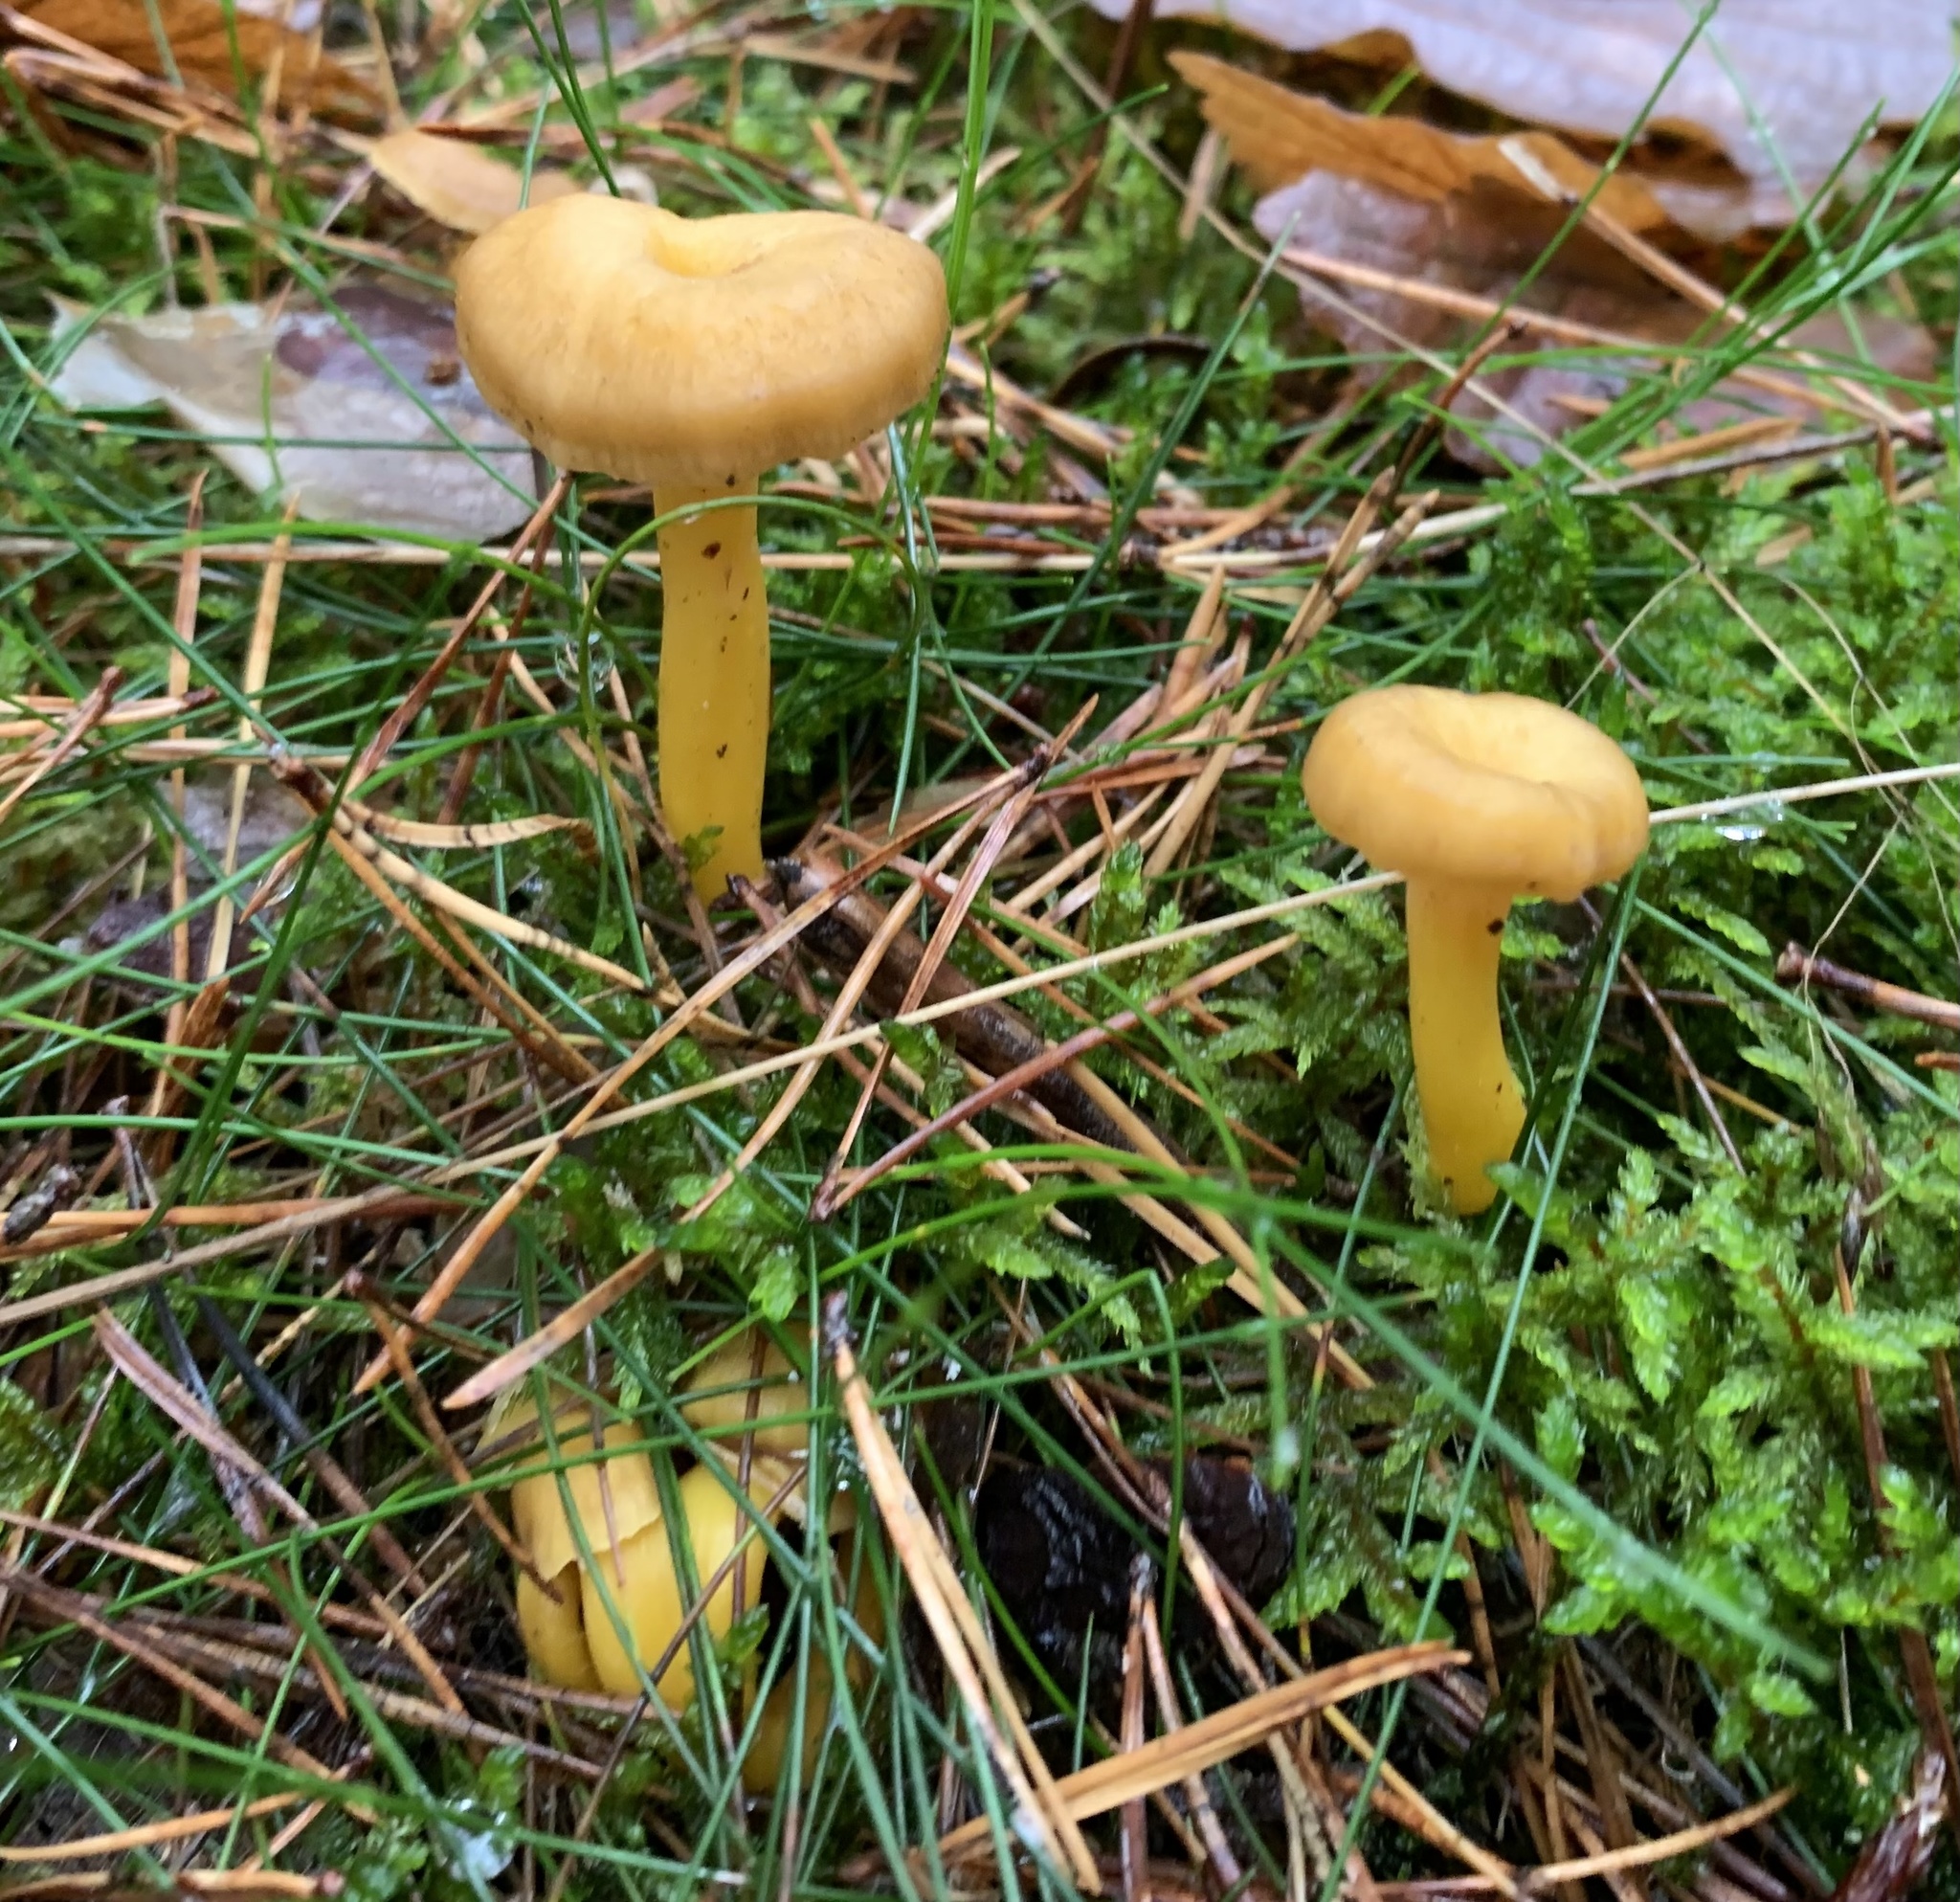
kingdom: Fungi
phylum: Basidiomycota
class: Agaricomycetes
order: Cantharellales
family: Hydnaceae
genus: Craterellus
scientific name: Craterellus tubaeformis
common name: Yellowfoot
